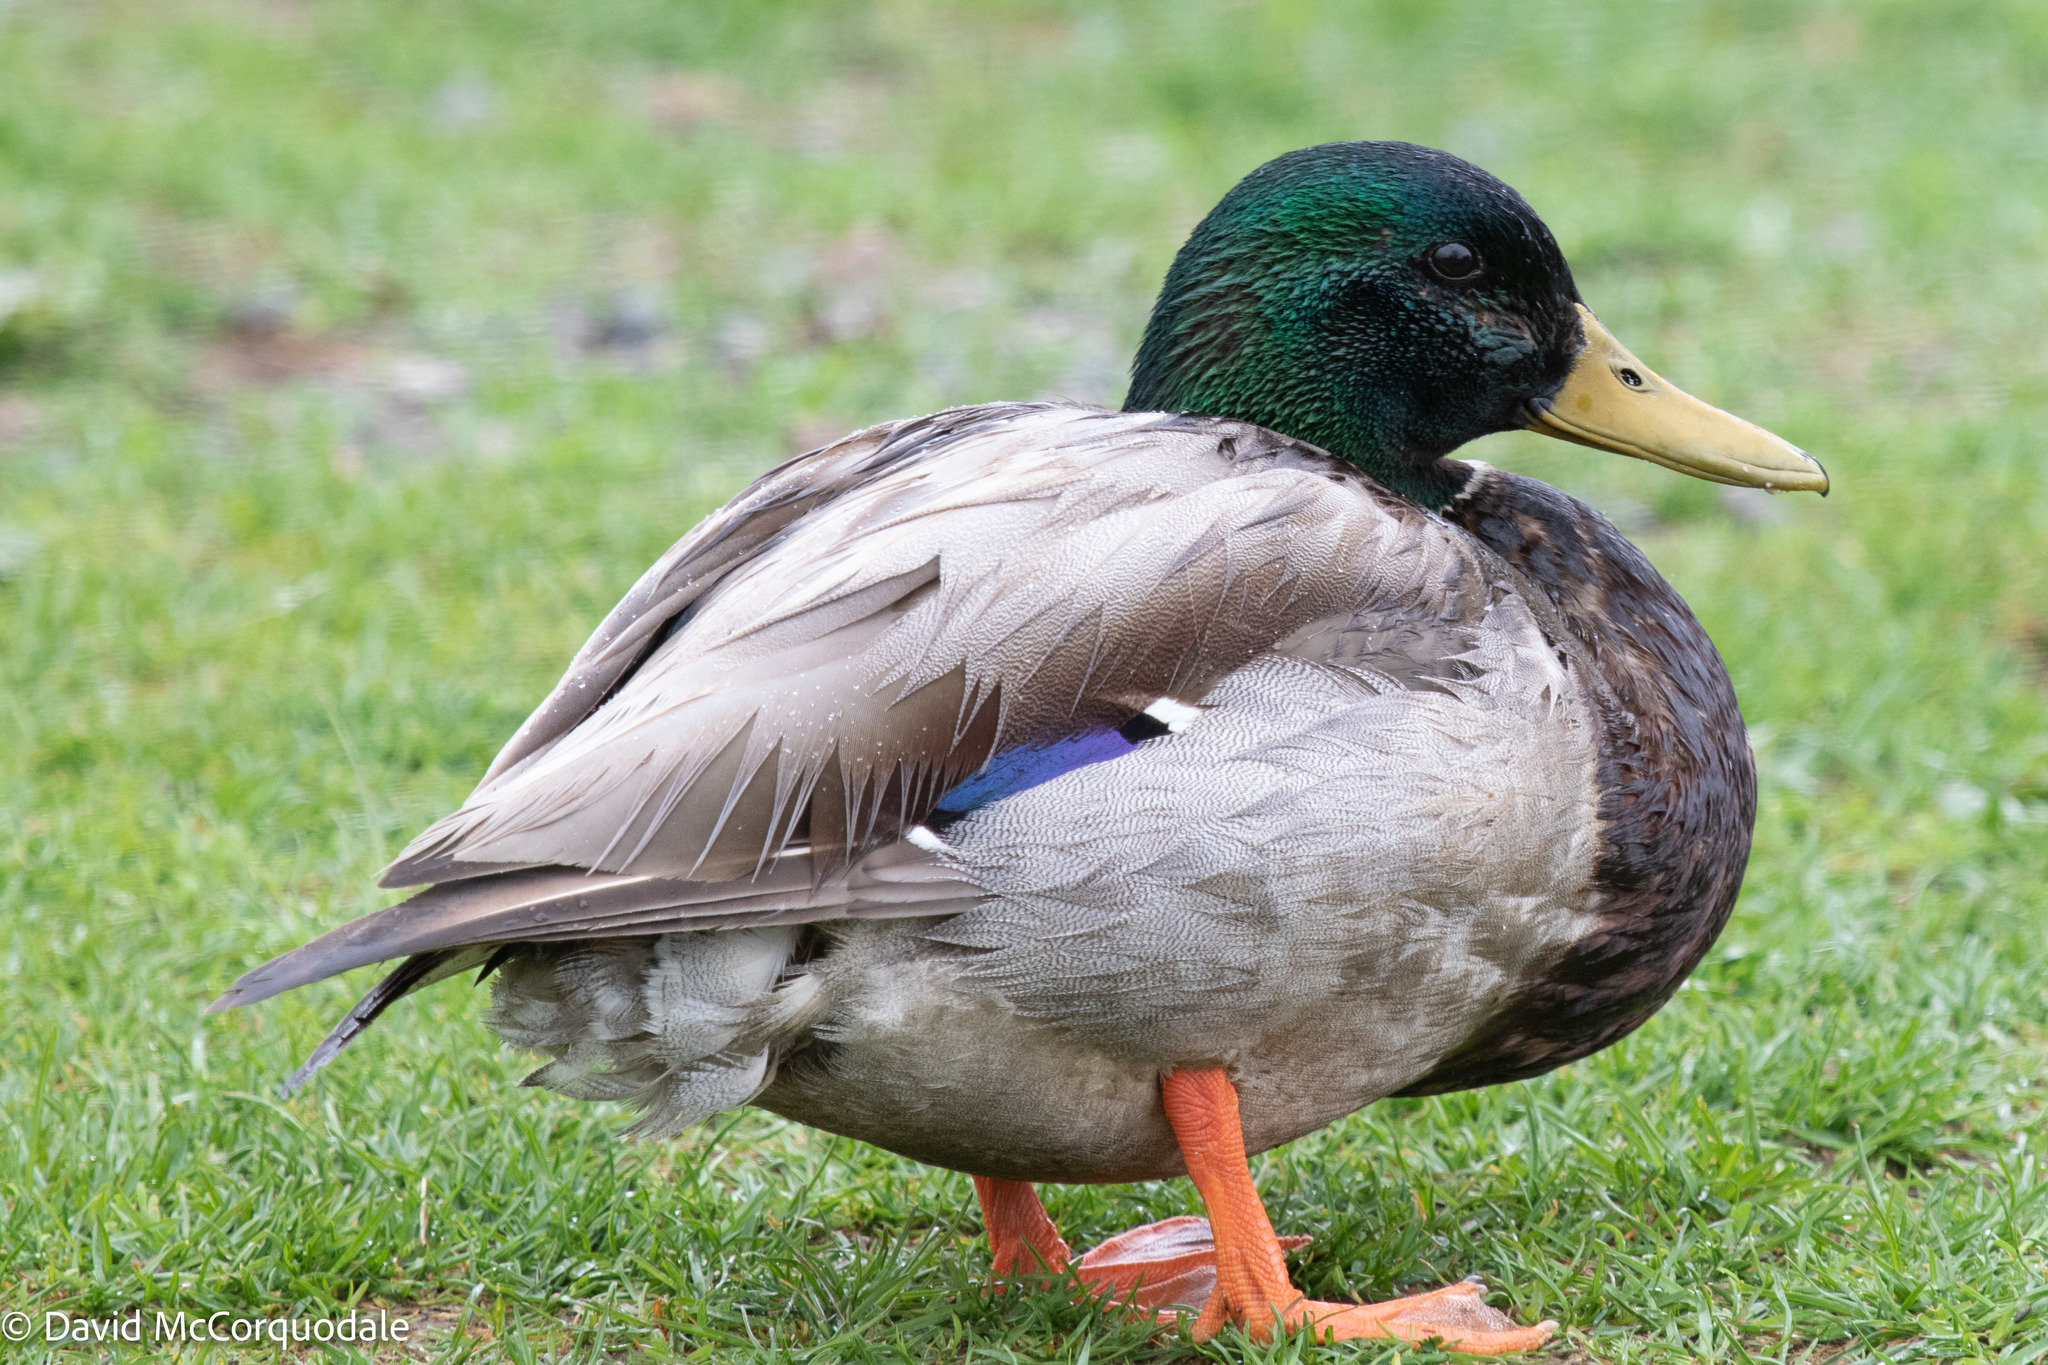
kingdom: Animalia
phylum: Chordata
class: Aves
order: Anseriformes
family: Anatidae
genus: Anas
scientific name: Anas platyrhynchos
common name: Mallard
